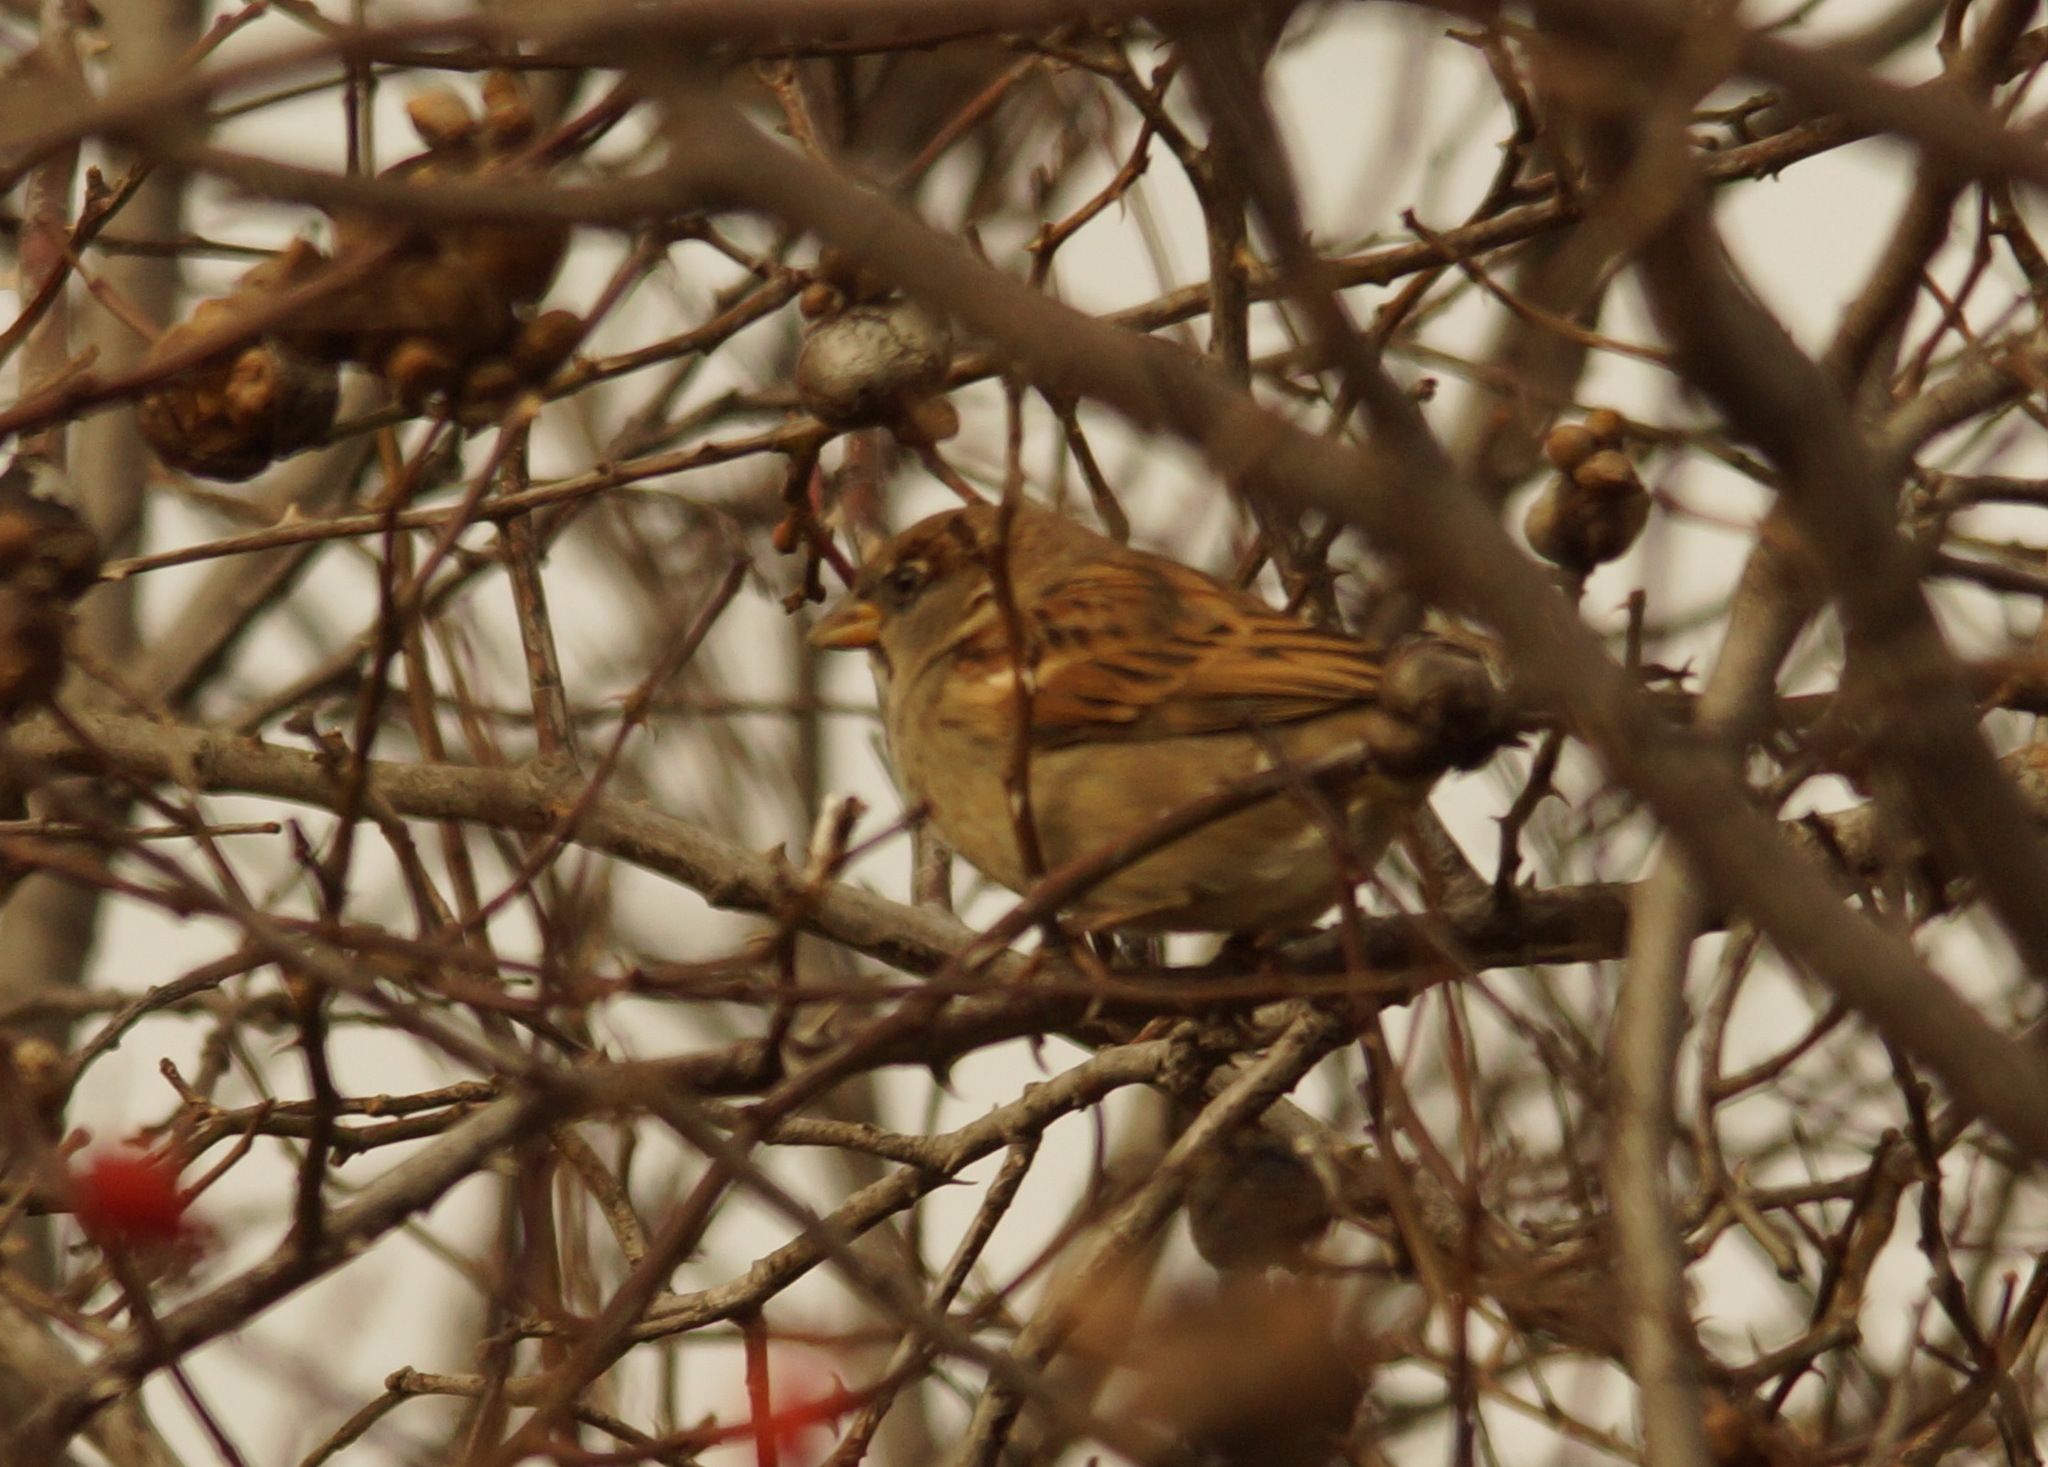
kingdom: Animalia
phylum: Chordata
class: Aves
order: Passeriformes
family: Passeridae
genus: Passer
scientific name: Passer domesticus
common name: House sparrow
